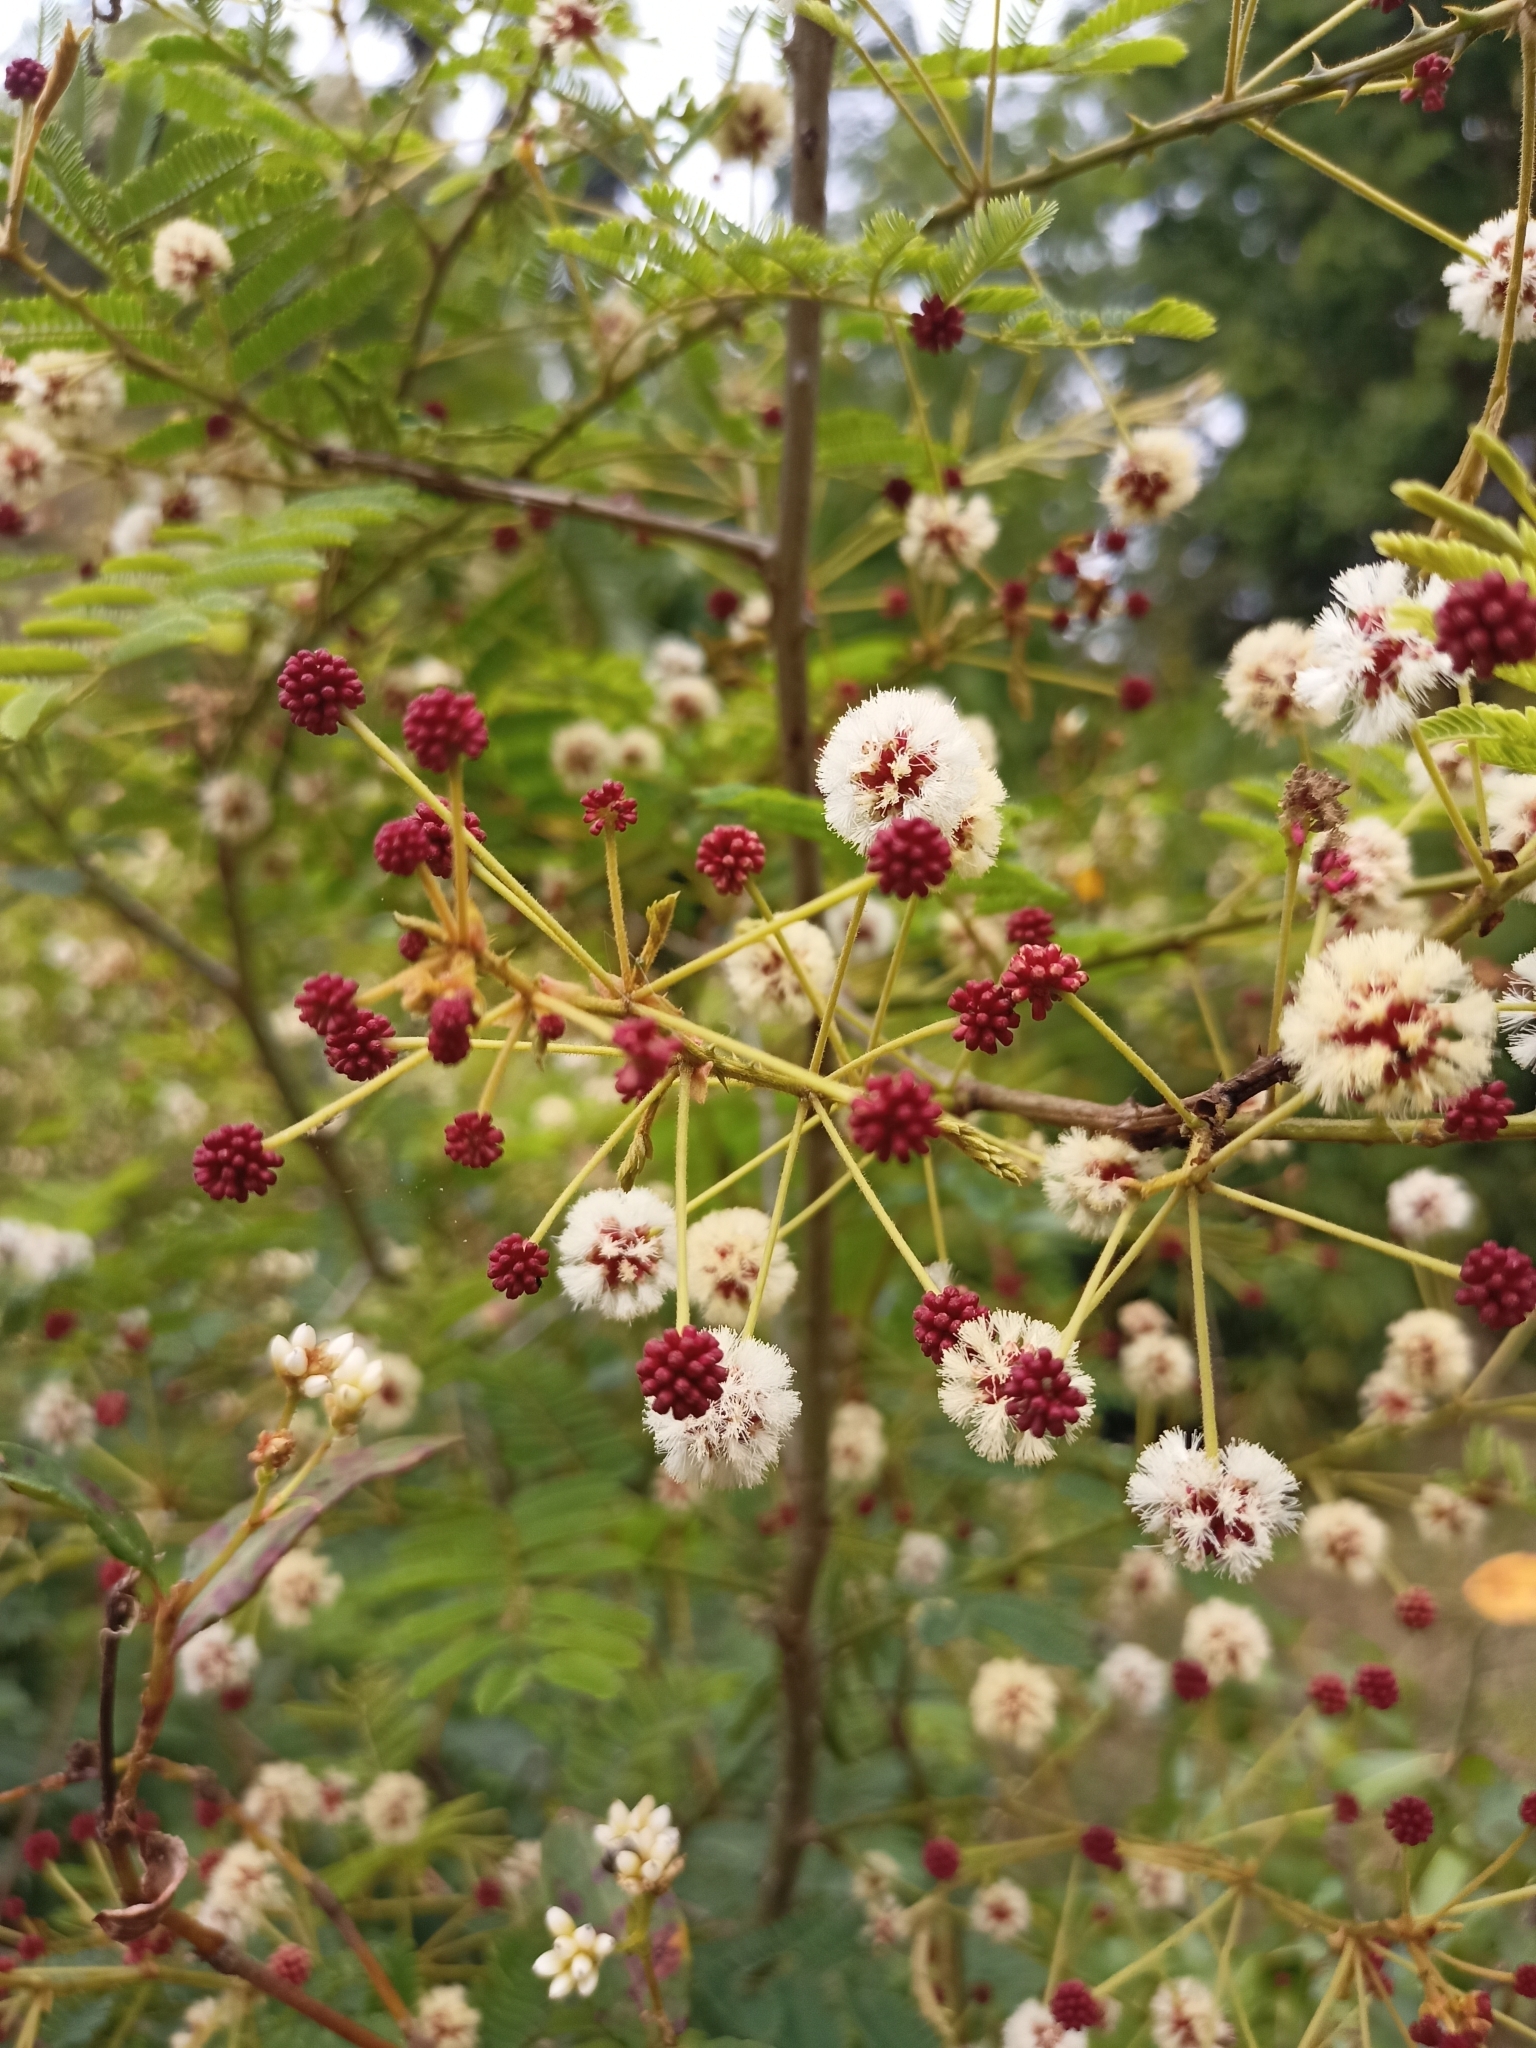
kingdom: Plantae
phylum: Tracheophyta
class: Magnoliopsida
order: Fabales
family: Fabaceae
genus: Senegalia
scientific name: Senegalia rugata
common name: Soap-pod
